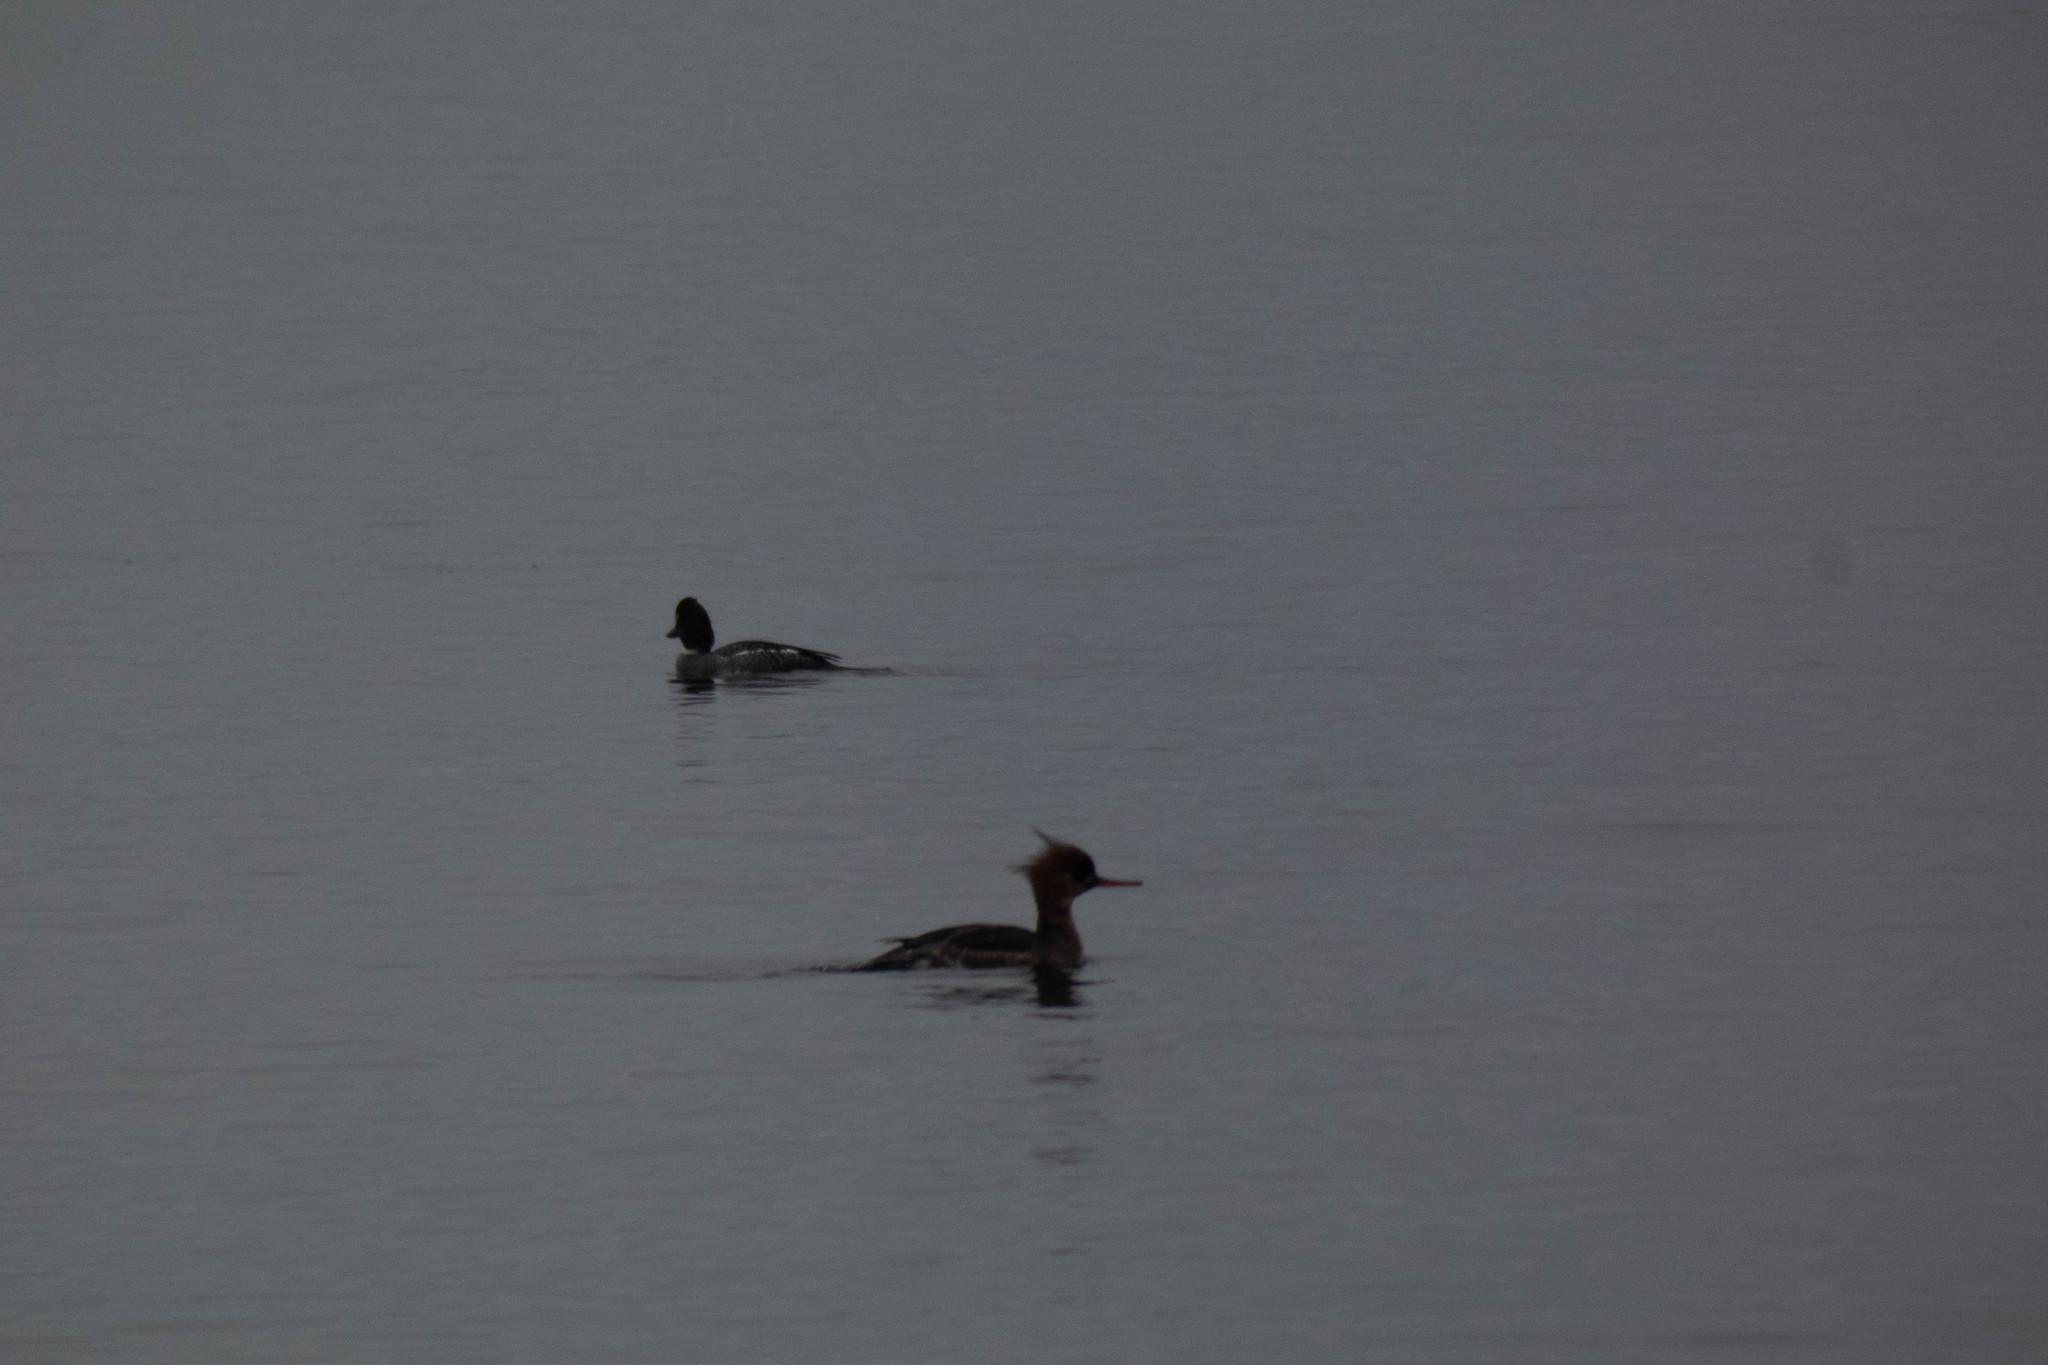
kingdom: Animalia
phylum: Chordata
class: Aves
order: Anseriformes
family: Anatidae
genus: Bucephala
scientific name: Bucephala clangula
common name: Common goldeneye
